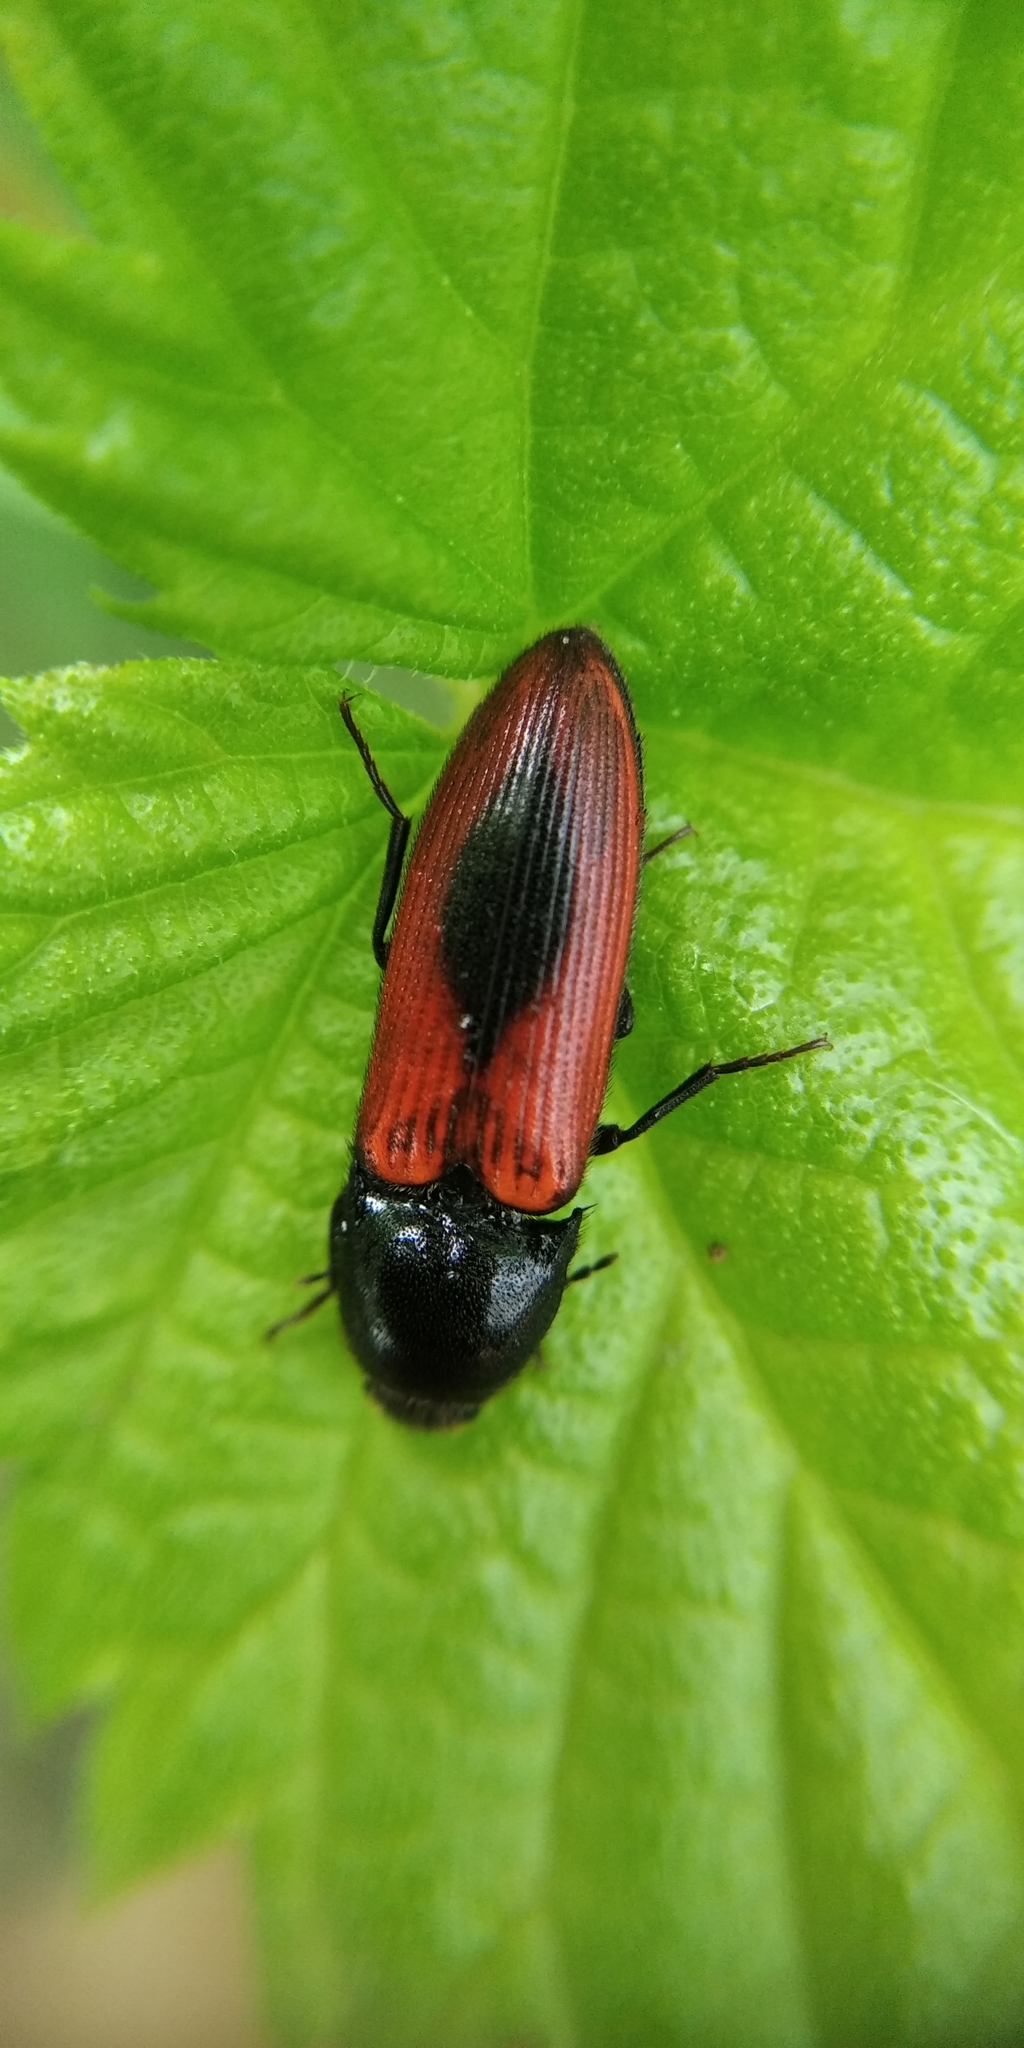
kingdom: Animalia
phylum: Arthropoda
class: Insecta
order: Coleoptera
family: Elateridae
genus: Ampedus
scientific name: Ampedus sanguinolentus
